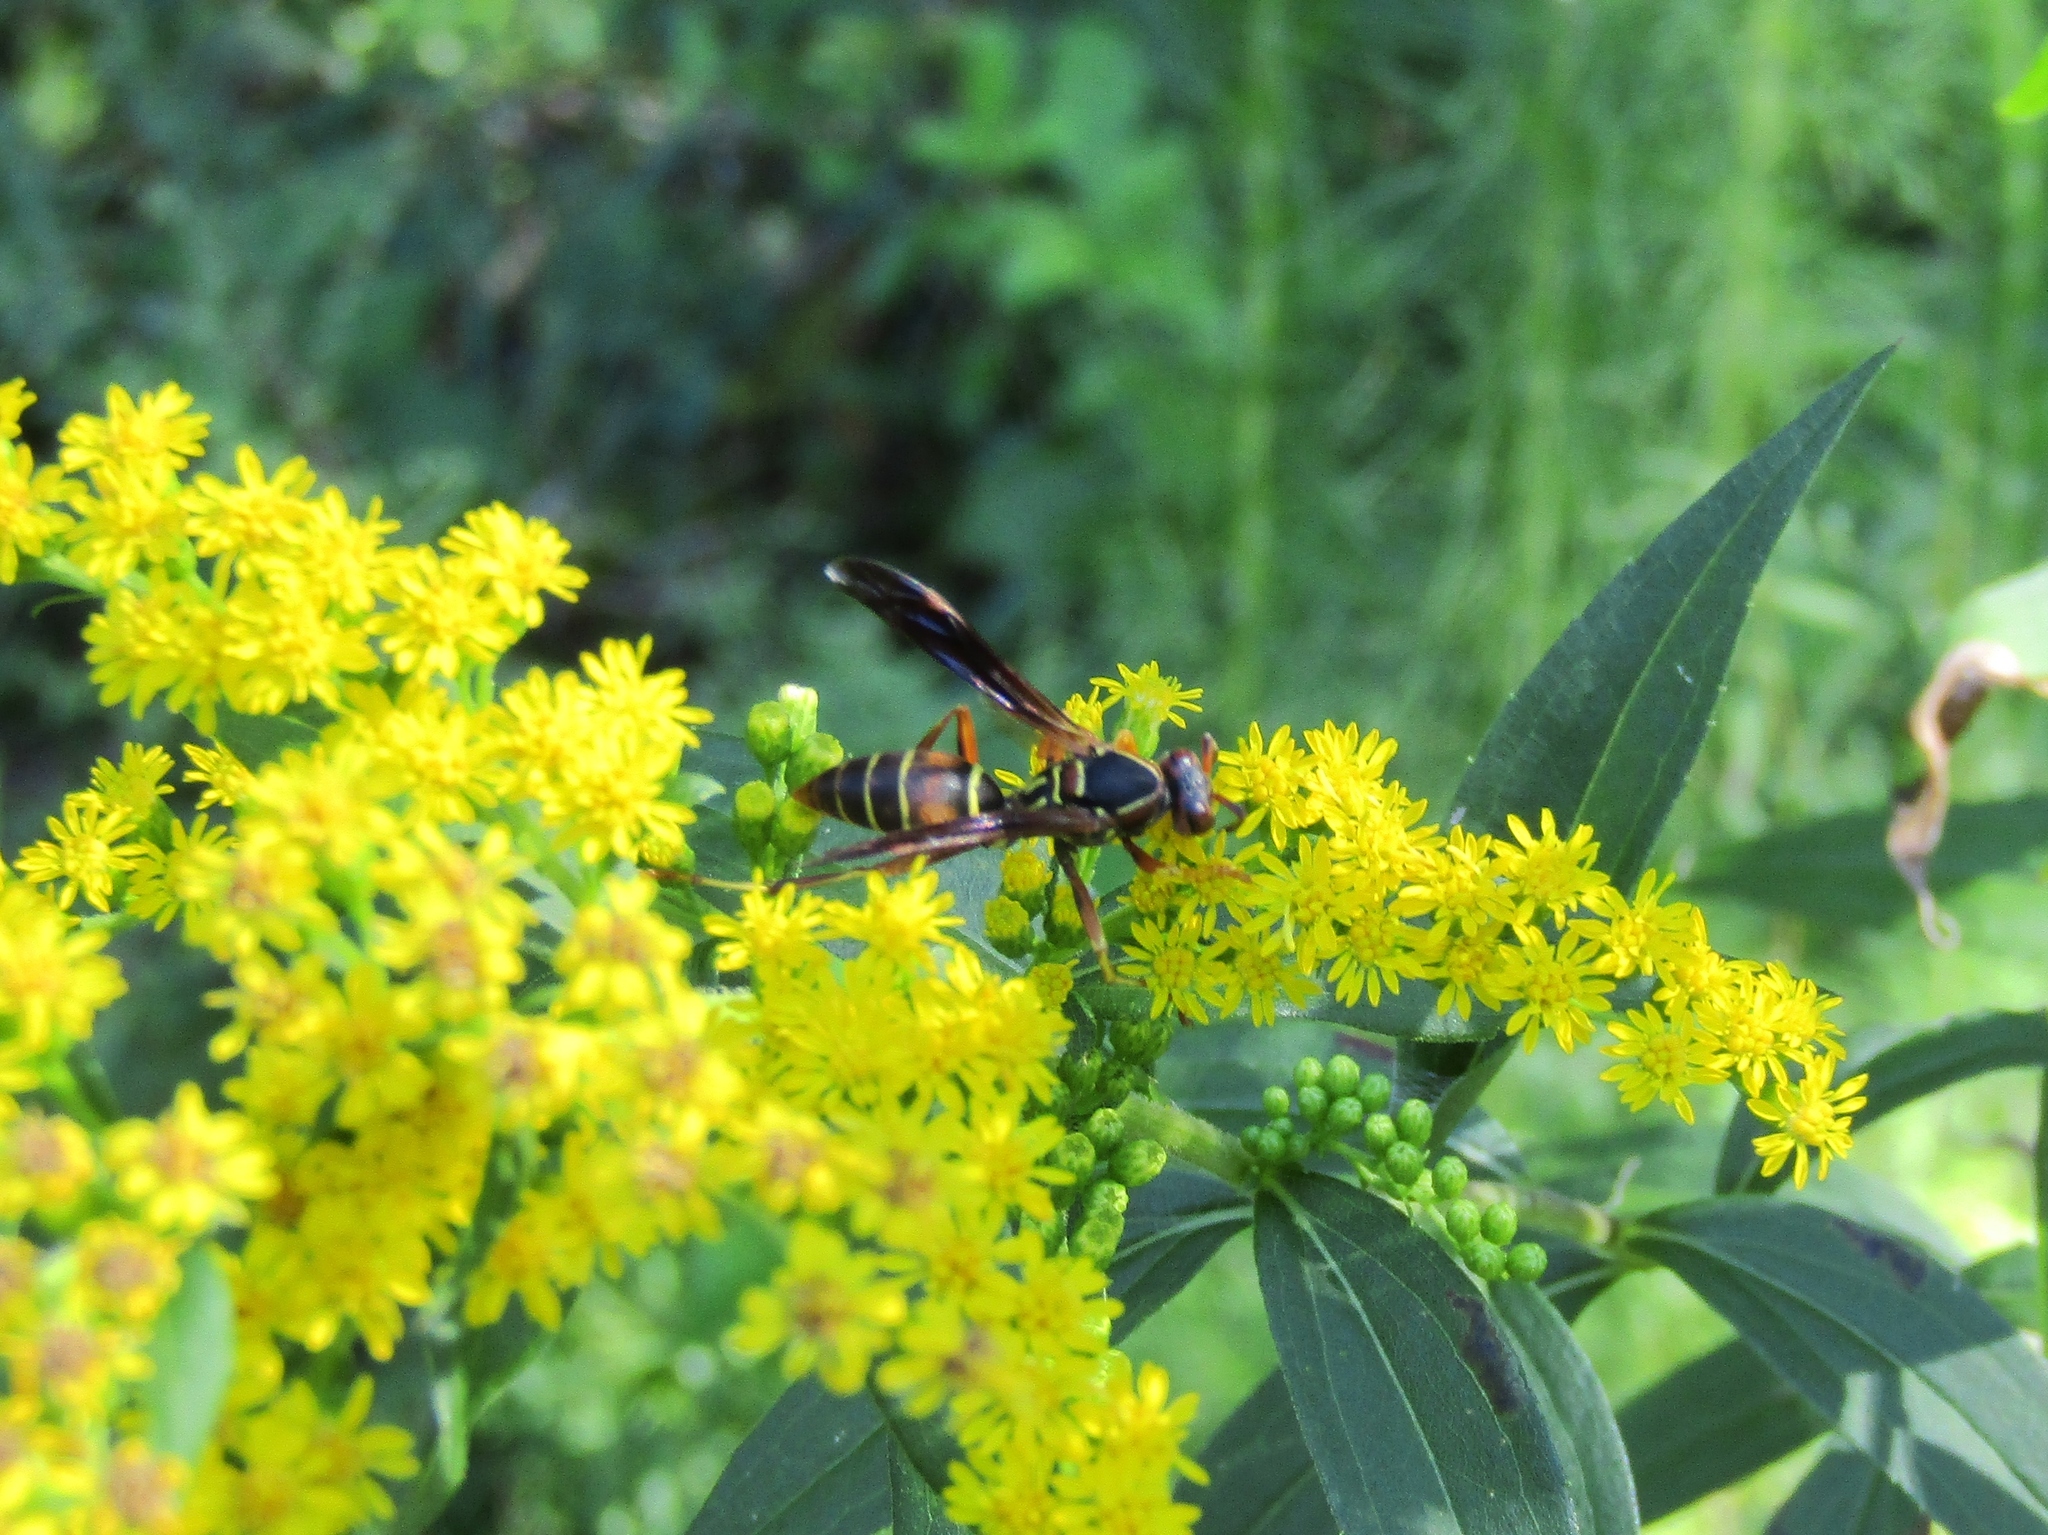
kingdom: Animalia
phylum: Arthropoda
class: Insecta
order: Hymenoptera
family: Eumenidae
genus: Polistes
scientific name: Polistes fuscatus
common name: Dark paper wasp
